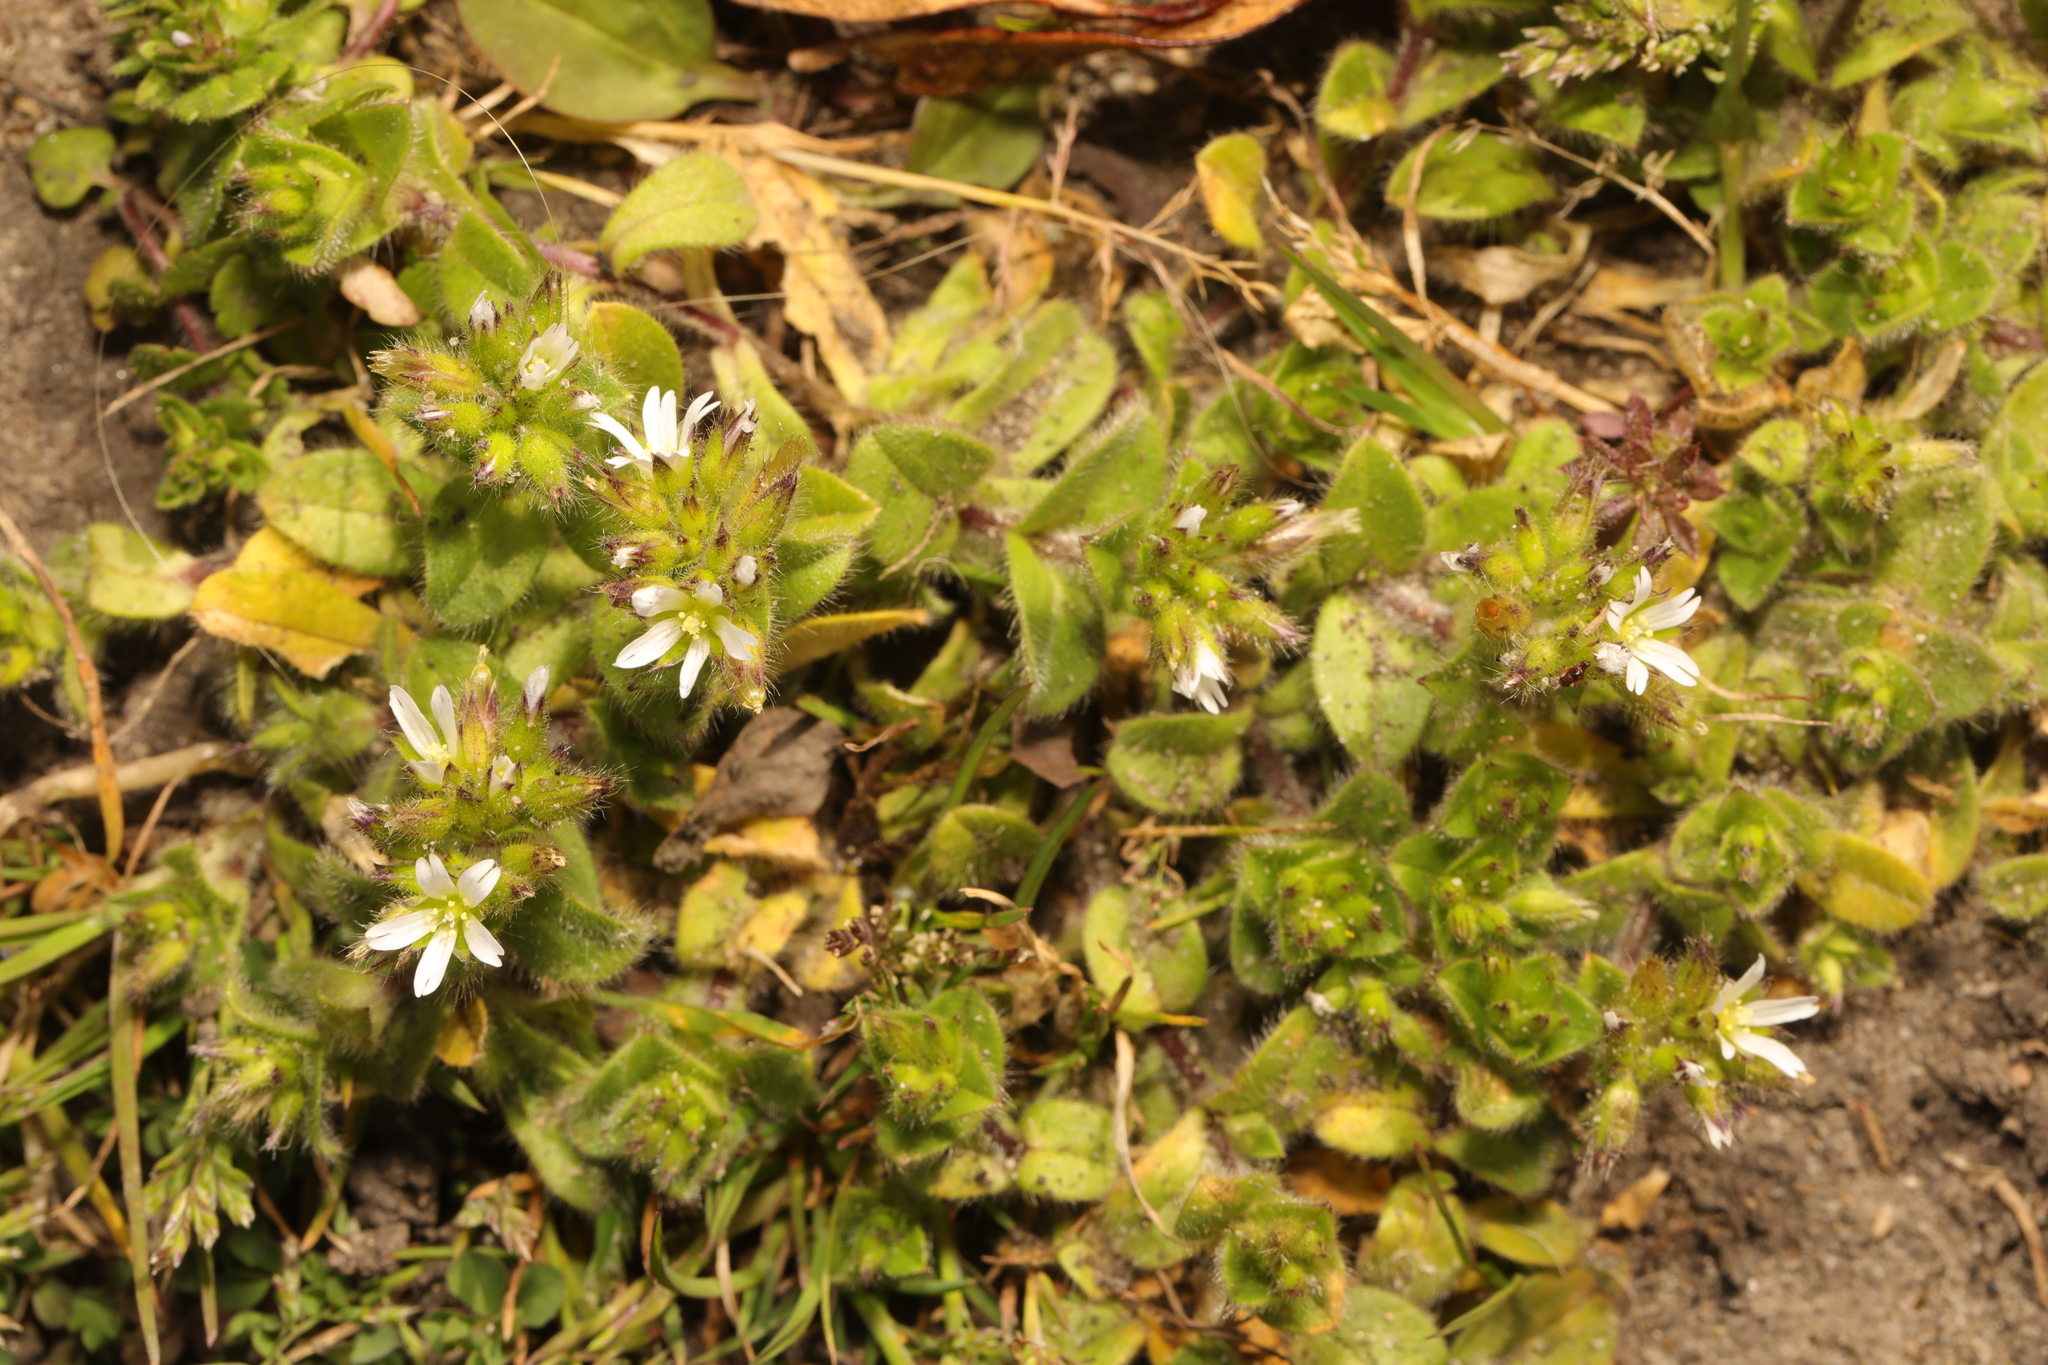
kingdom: Plantae
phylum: Tracheophyta
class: Magnoliopsida
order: Caryophyllales
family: Caryophyllaceae
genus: Cerastium
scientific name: Cerastium glomeratum
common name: Sticky chickweed
